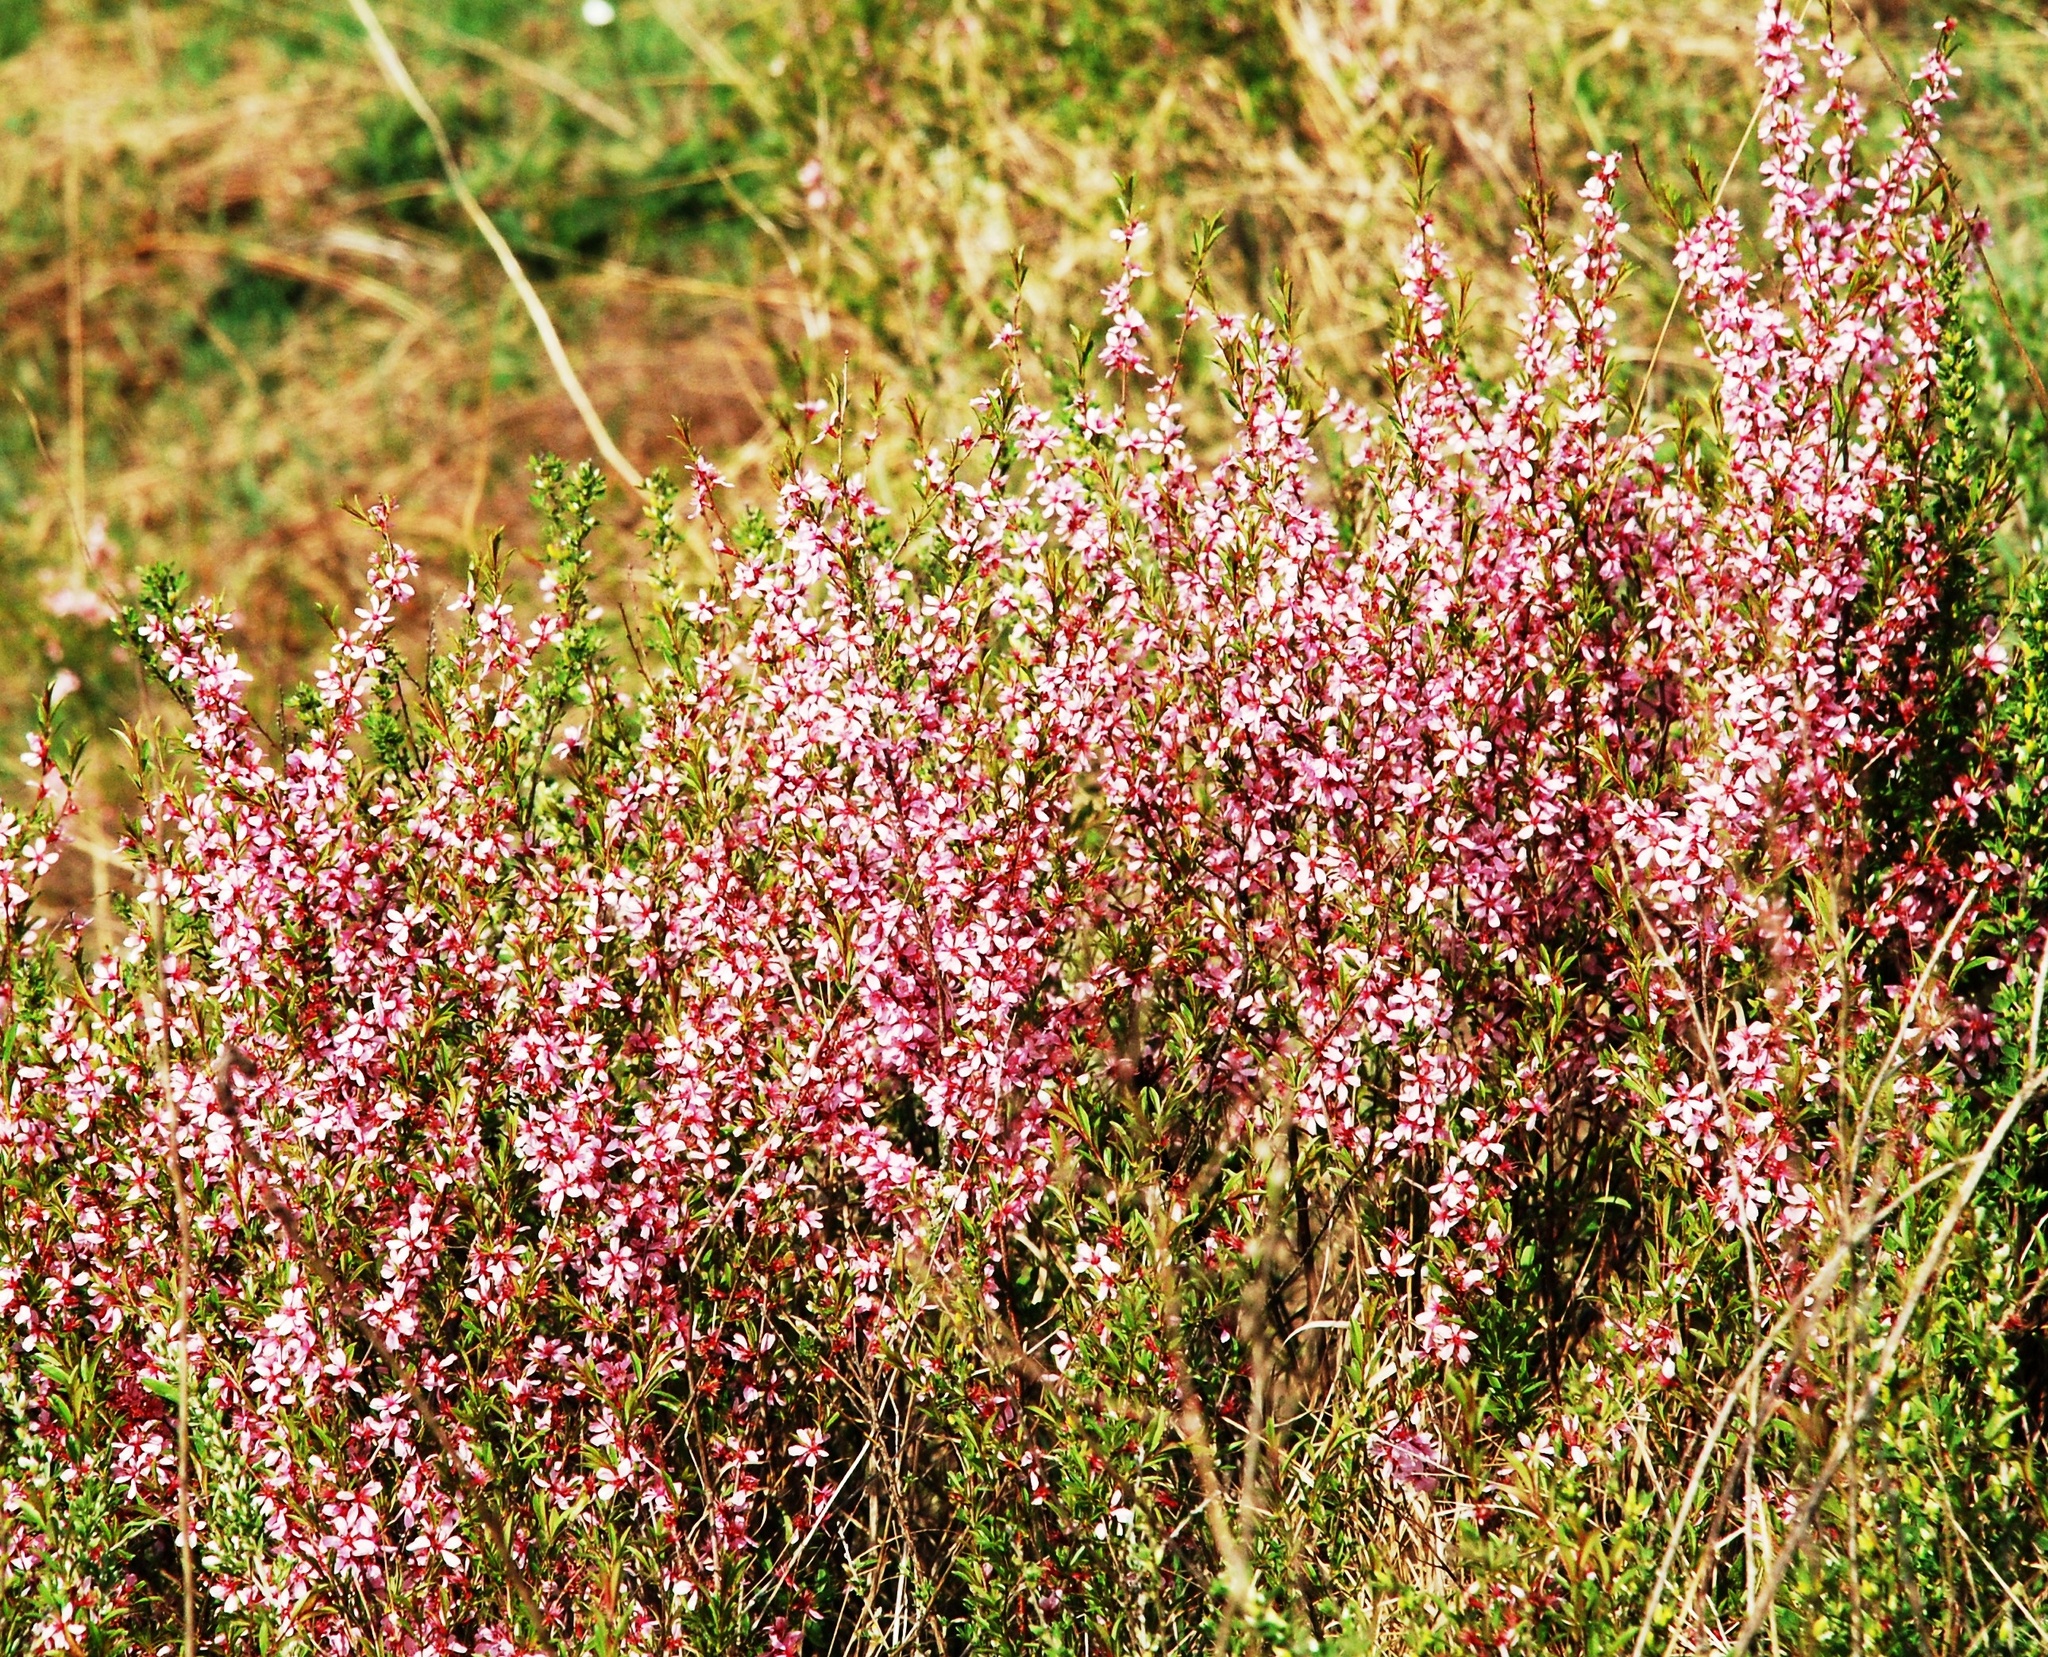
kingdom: Plantae
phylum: Tracheophyta
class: Magnoliopsida
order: Rosales
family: Rosaceae
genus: Prunus
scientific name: Prunus tenella
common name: Dwarf russian almond
